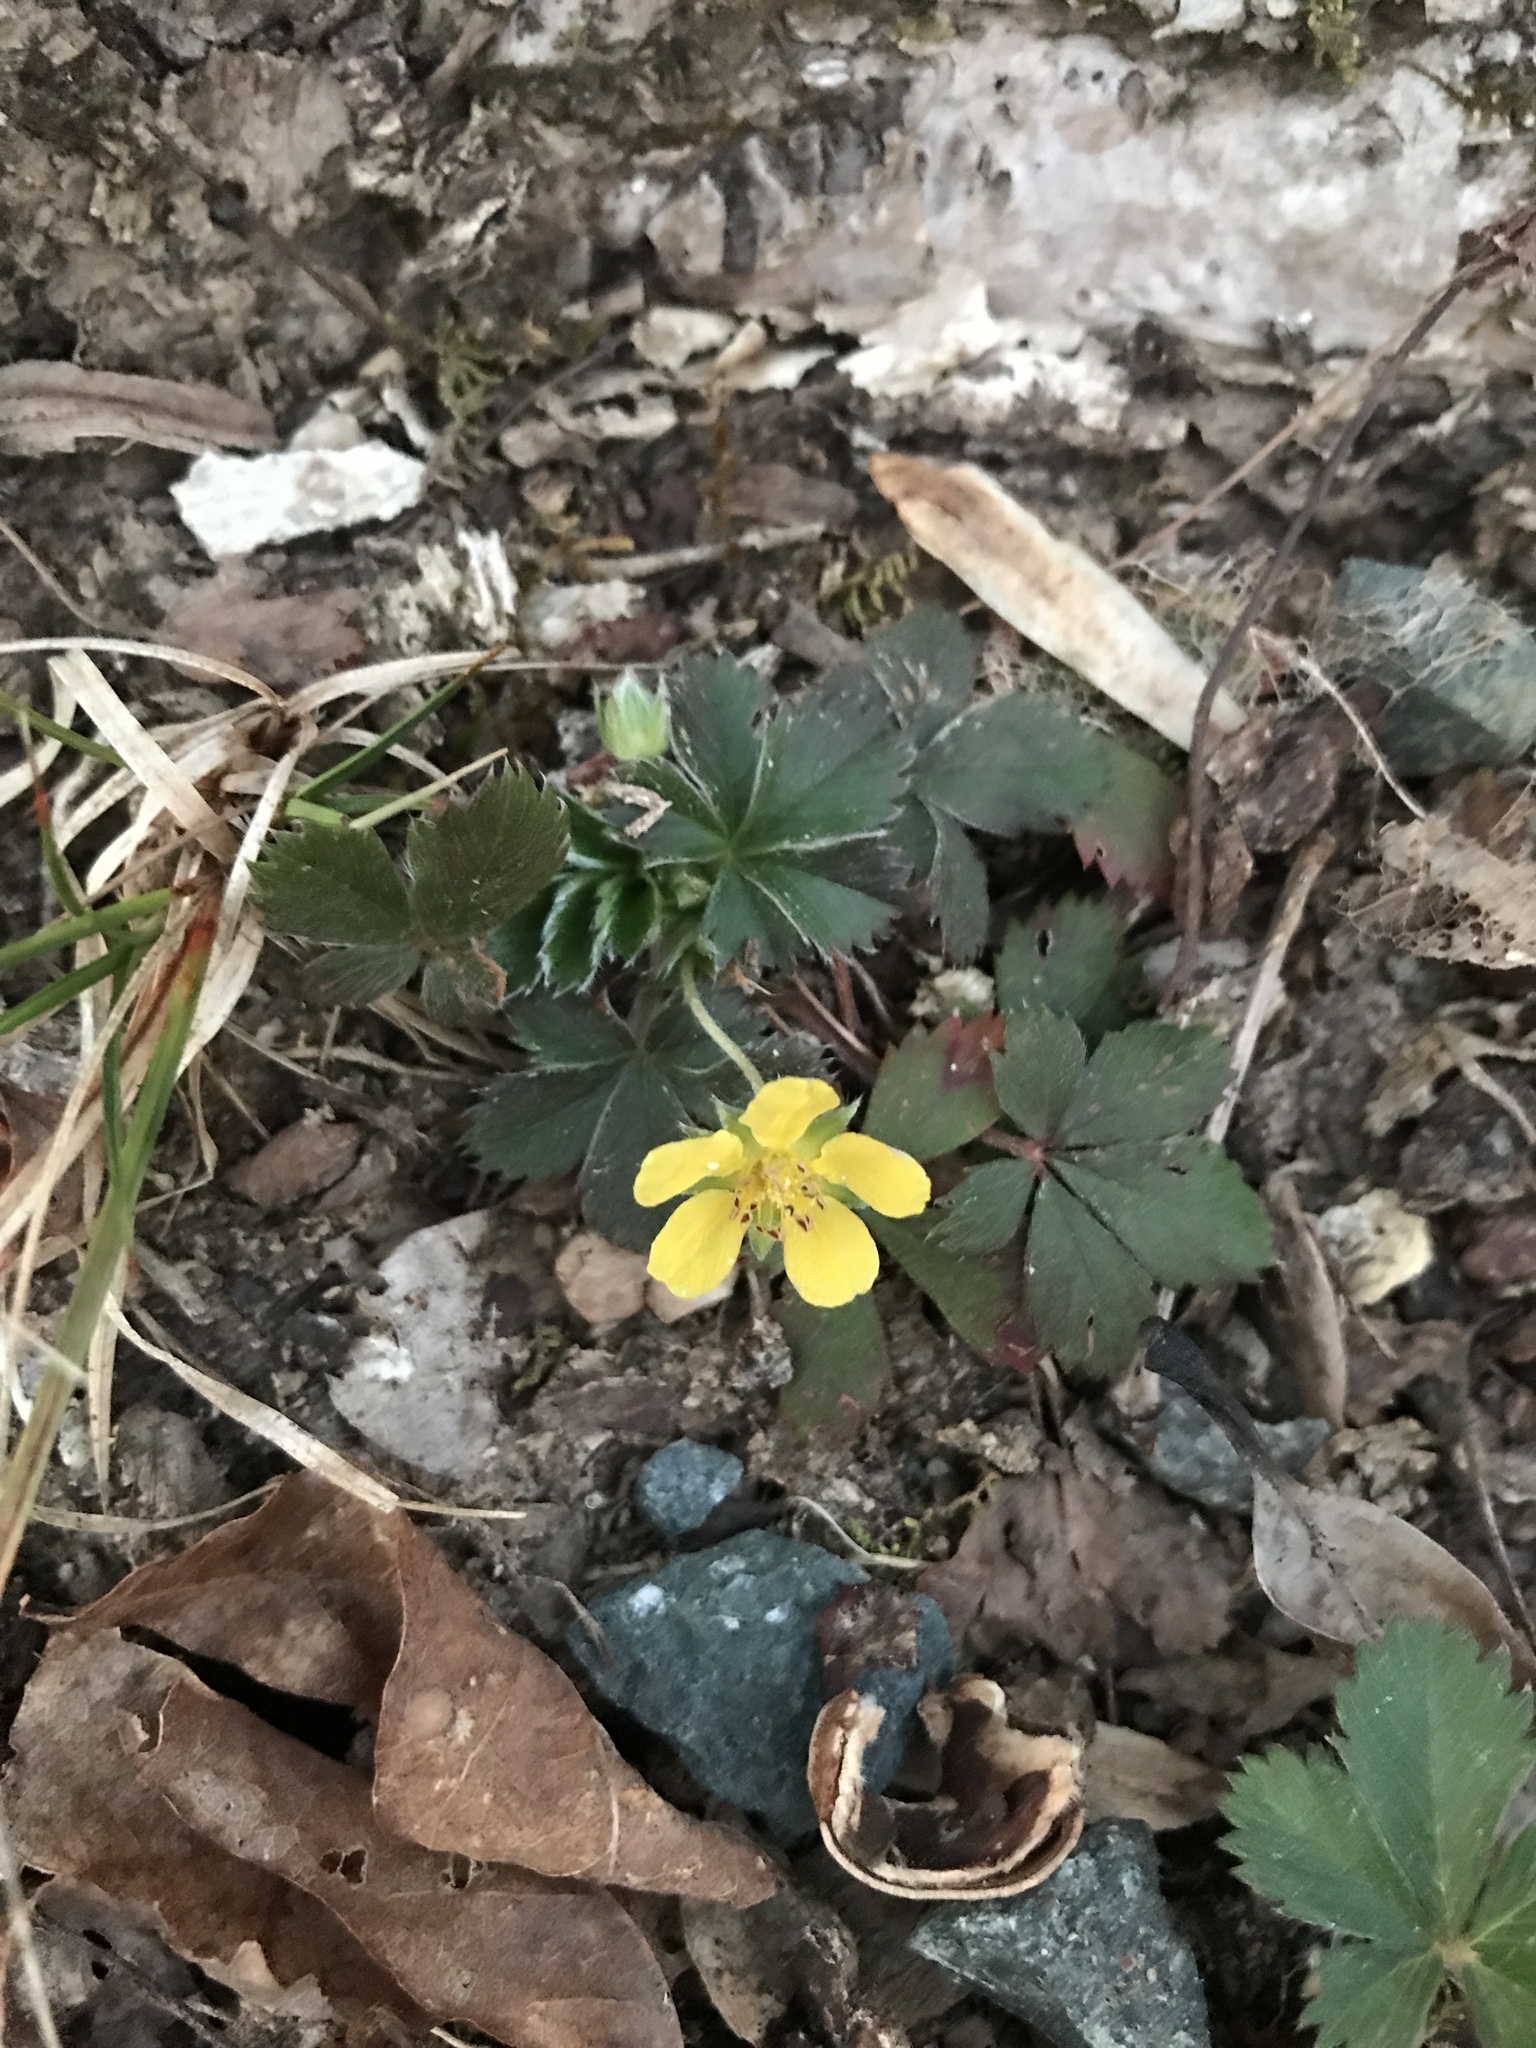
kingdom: Plantae
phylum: Tracheophyta
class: Magnoliopsida
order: Rosales
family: Rosaceae
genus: Potentilla
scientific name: Potentilla canadensis
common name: Canada cinquefoil
